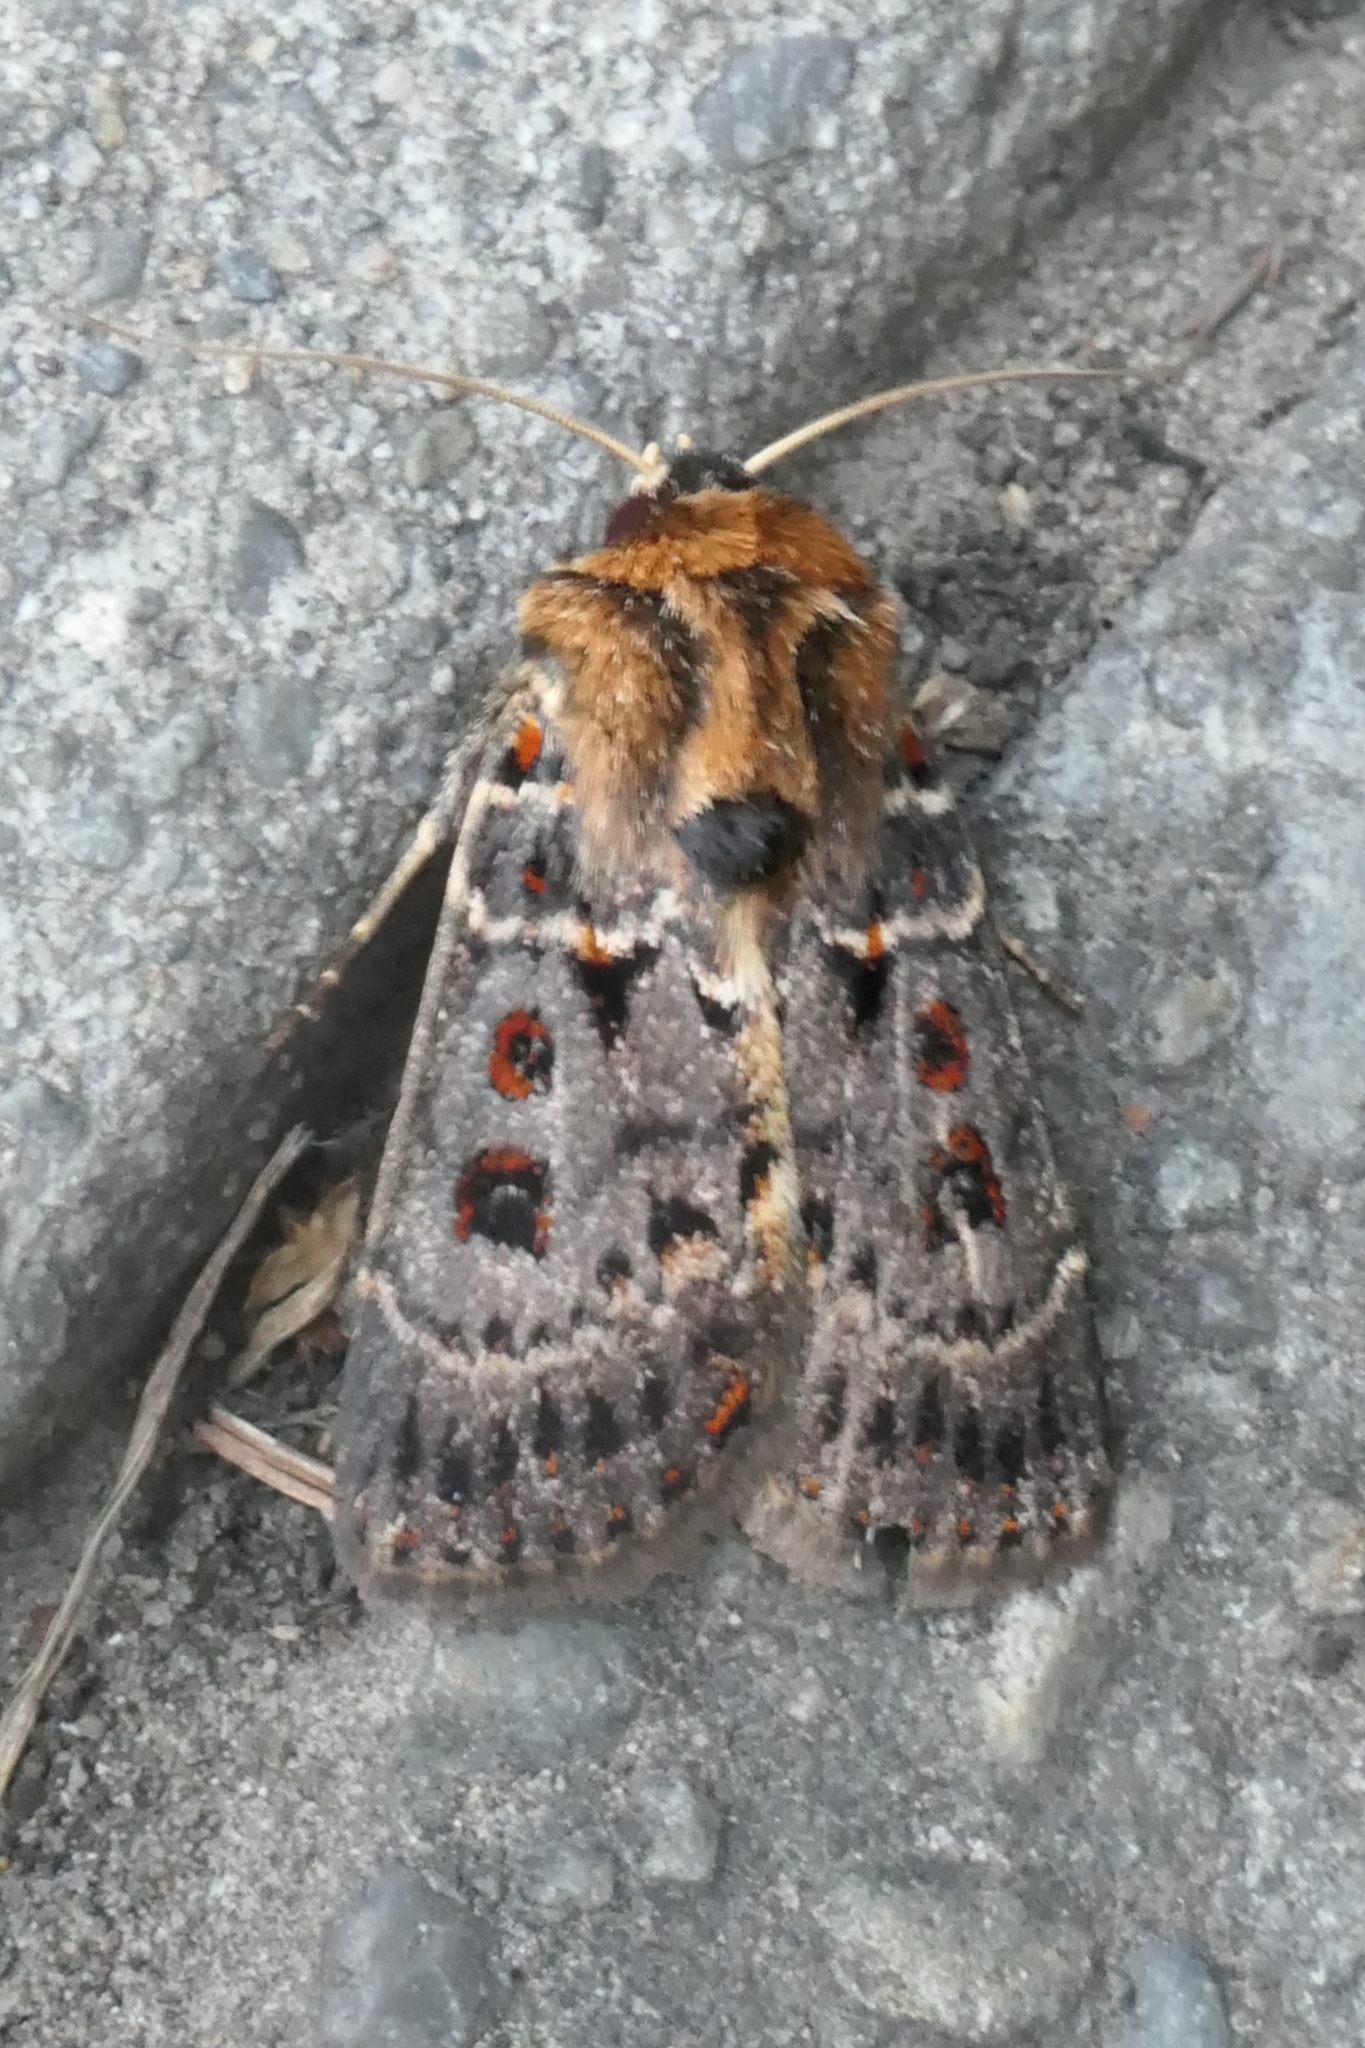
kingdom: Animalia
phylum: Arthropoda
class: Insecta
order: Lepidoptera
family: Noctuidae
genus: Proteuxoa
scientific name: Proteuxoa sanguinipuncta
